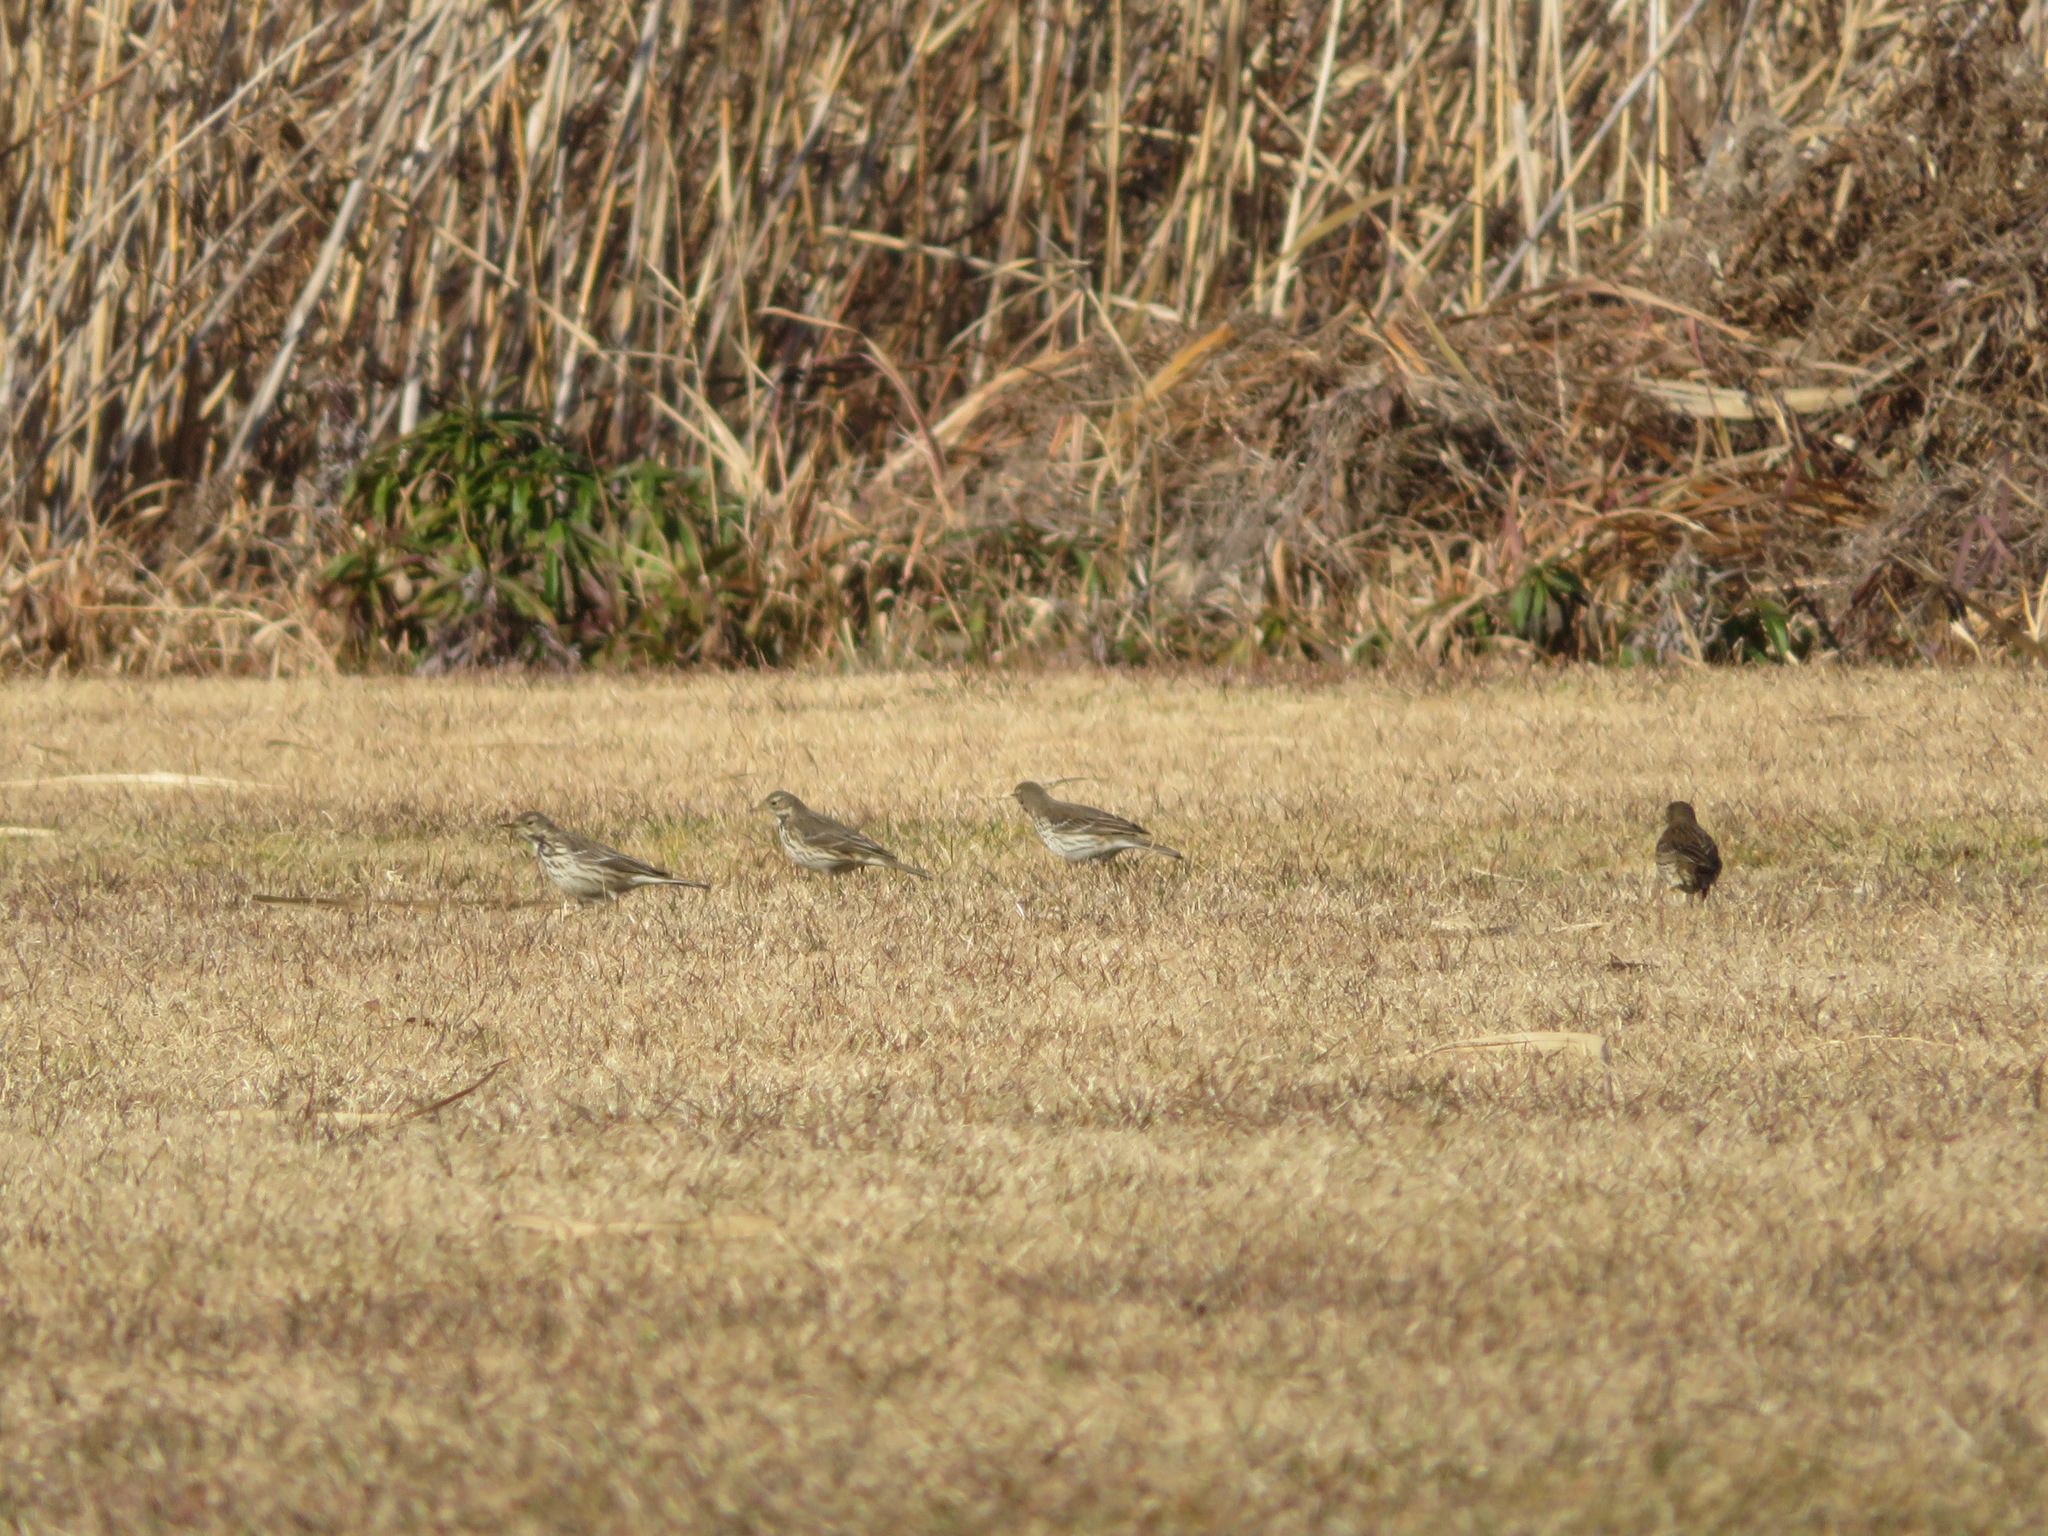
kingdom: Animalia
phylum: Chordata
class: Aves
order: Passeriformes
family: Motacillidae
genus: Anthus
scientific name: Anthus rubescens
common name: Buff-bellied pipit
